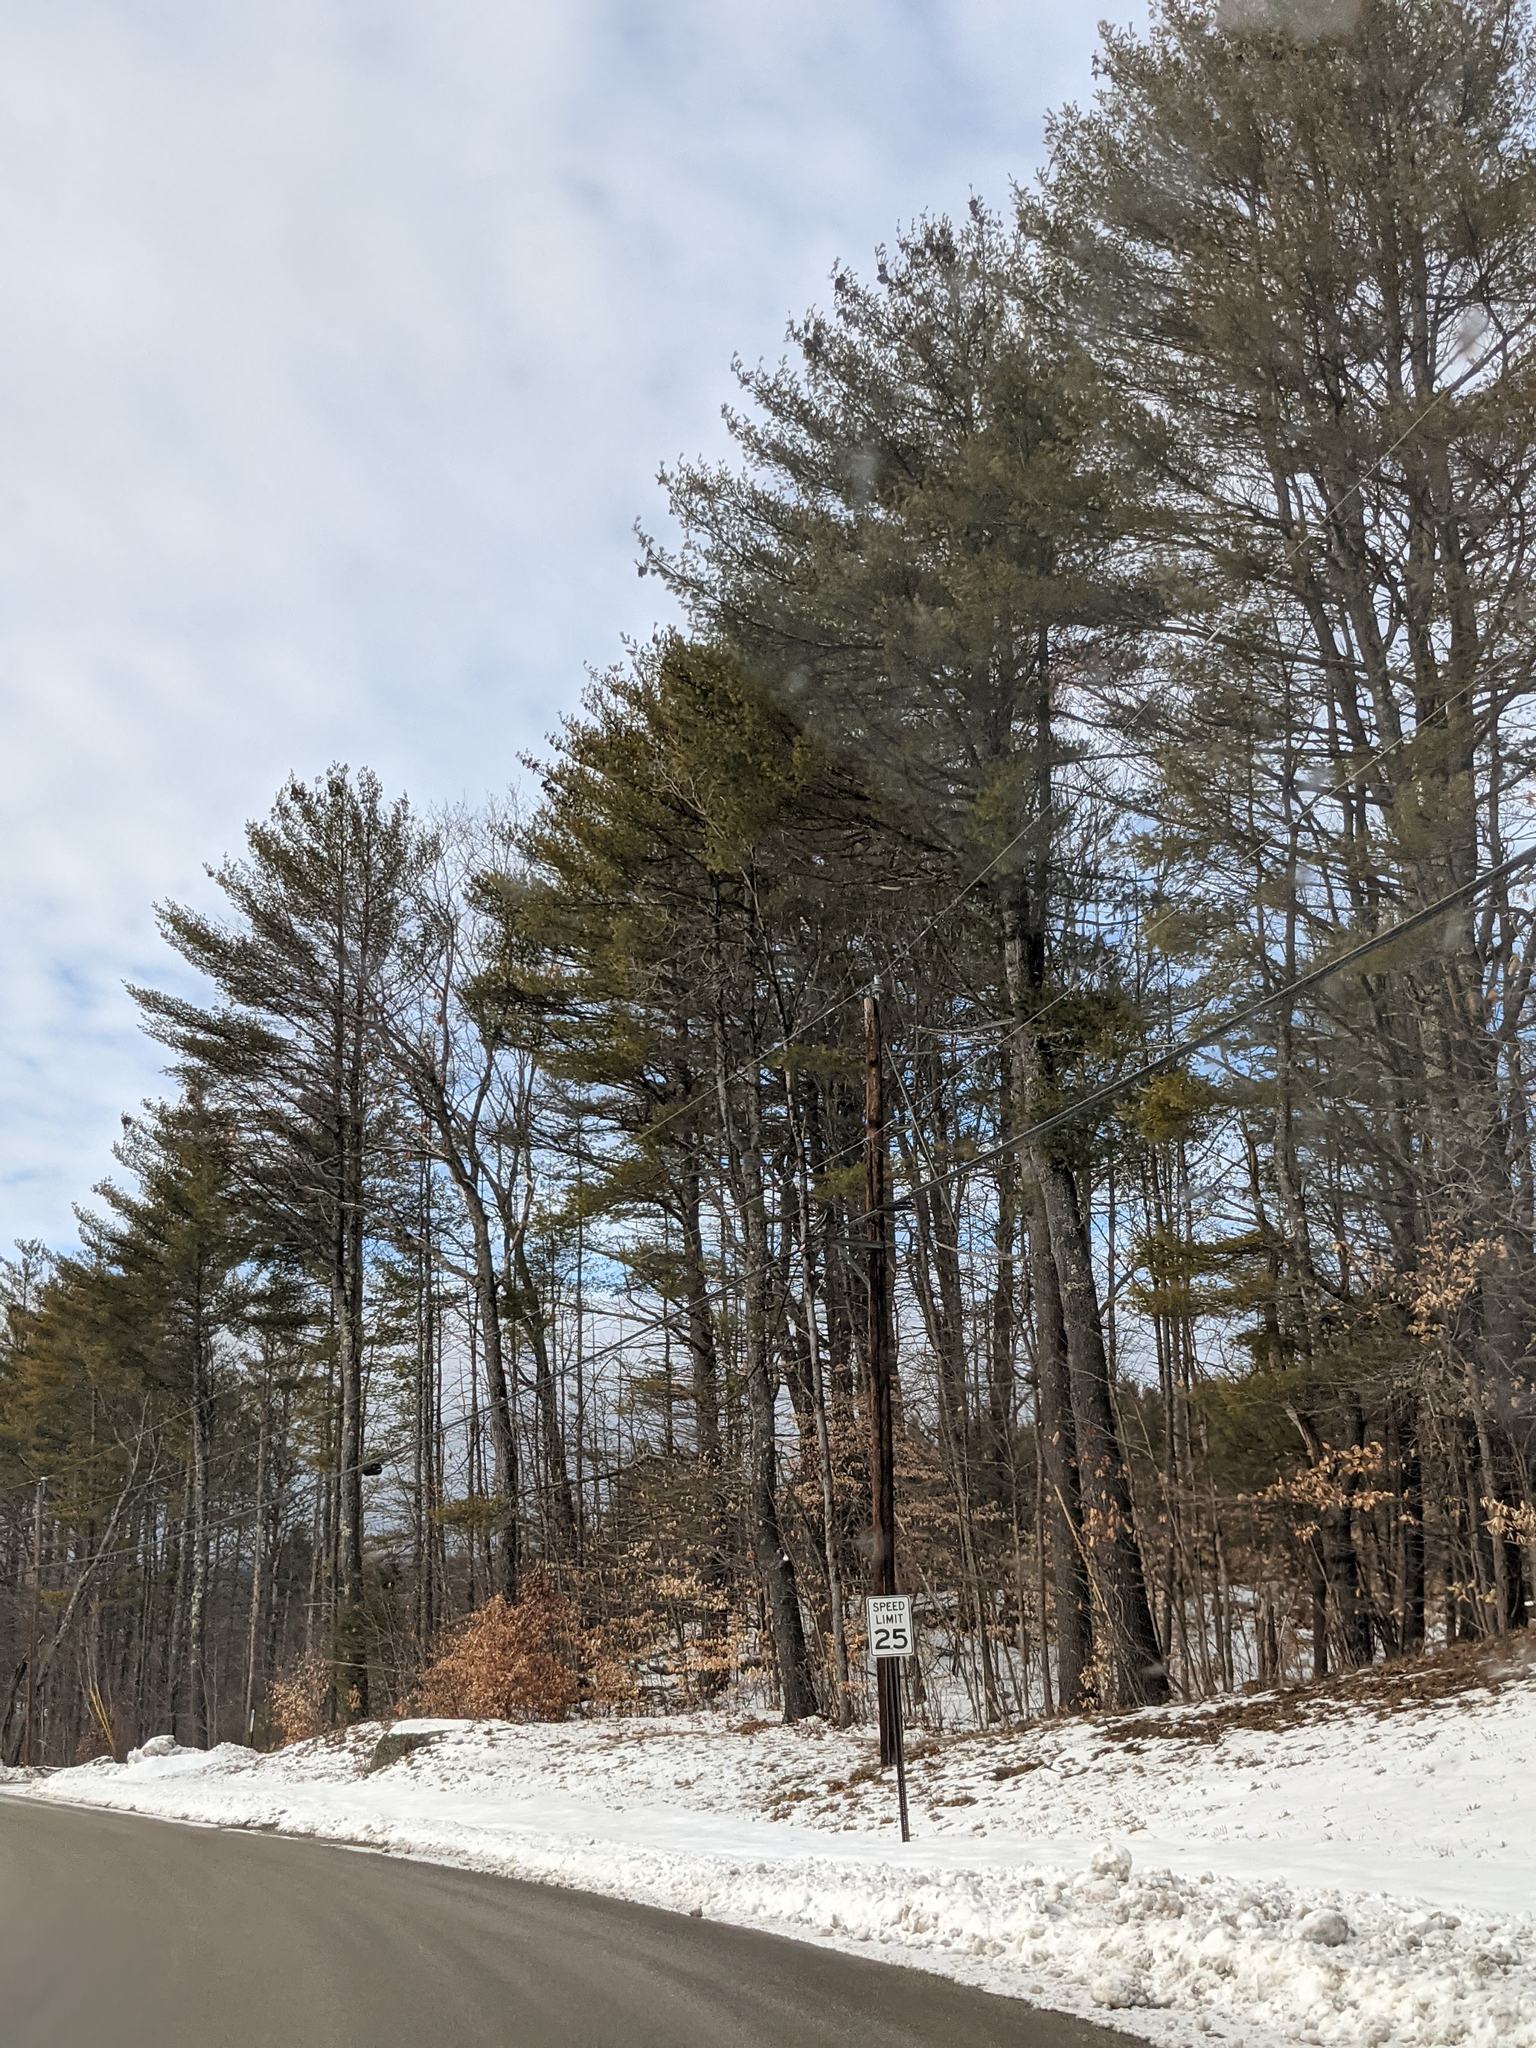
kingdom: Plantae
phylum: Tracheophyta
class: Pinopsida
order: Pinales
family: Pinaceae
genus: Pinus
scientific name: Pinus strobus
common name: Weymouth pine
